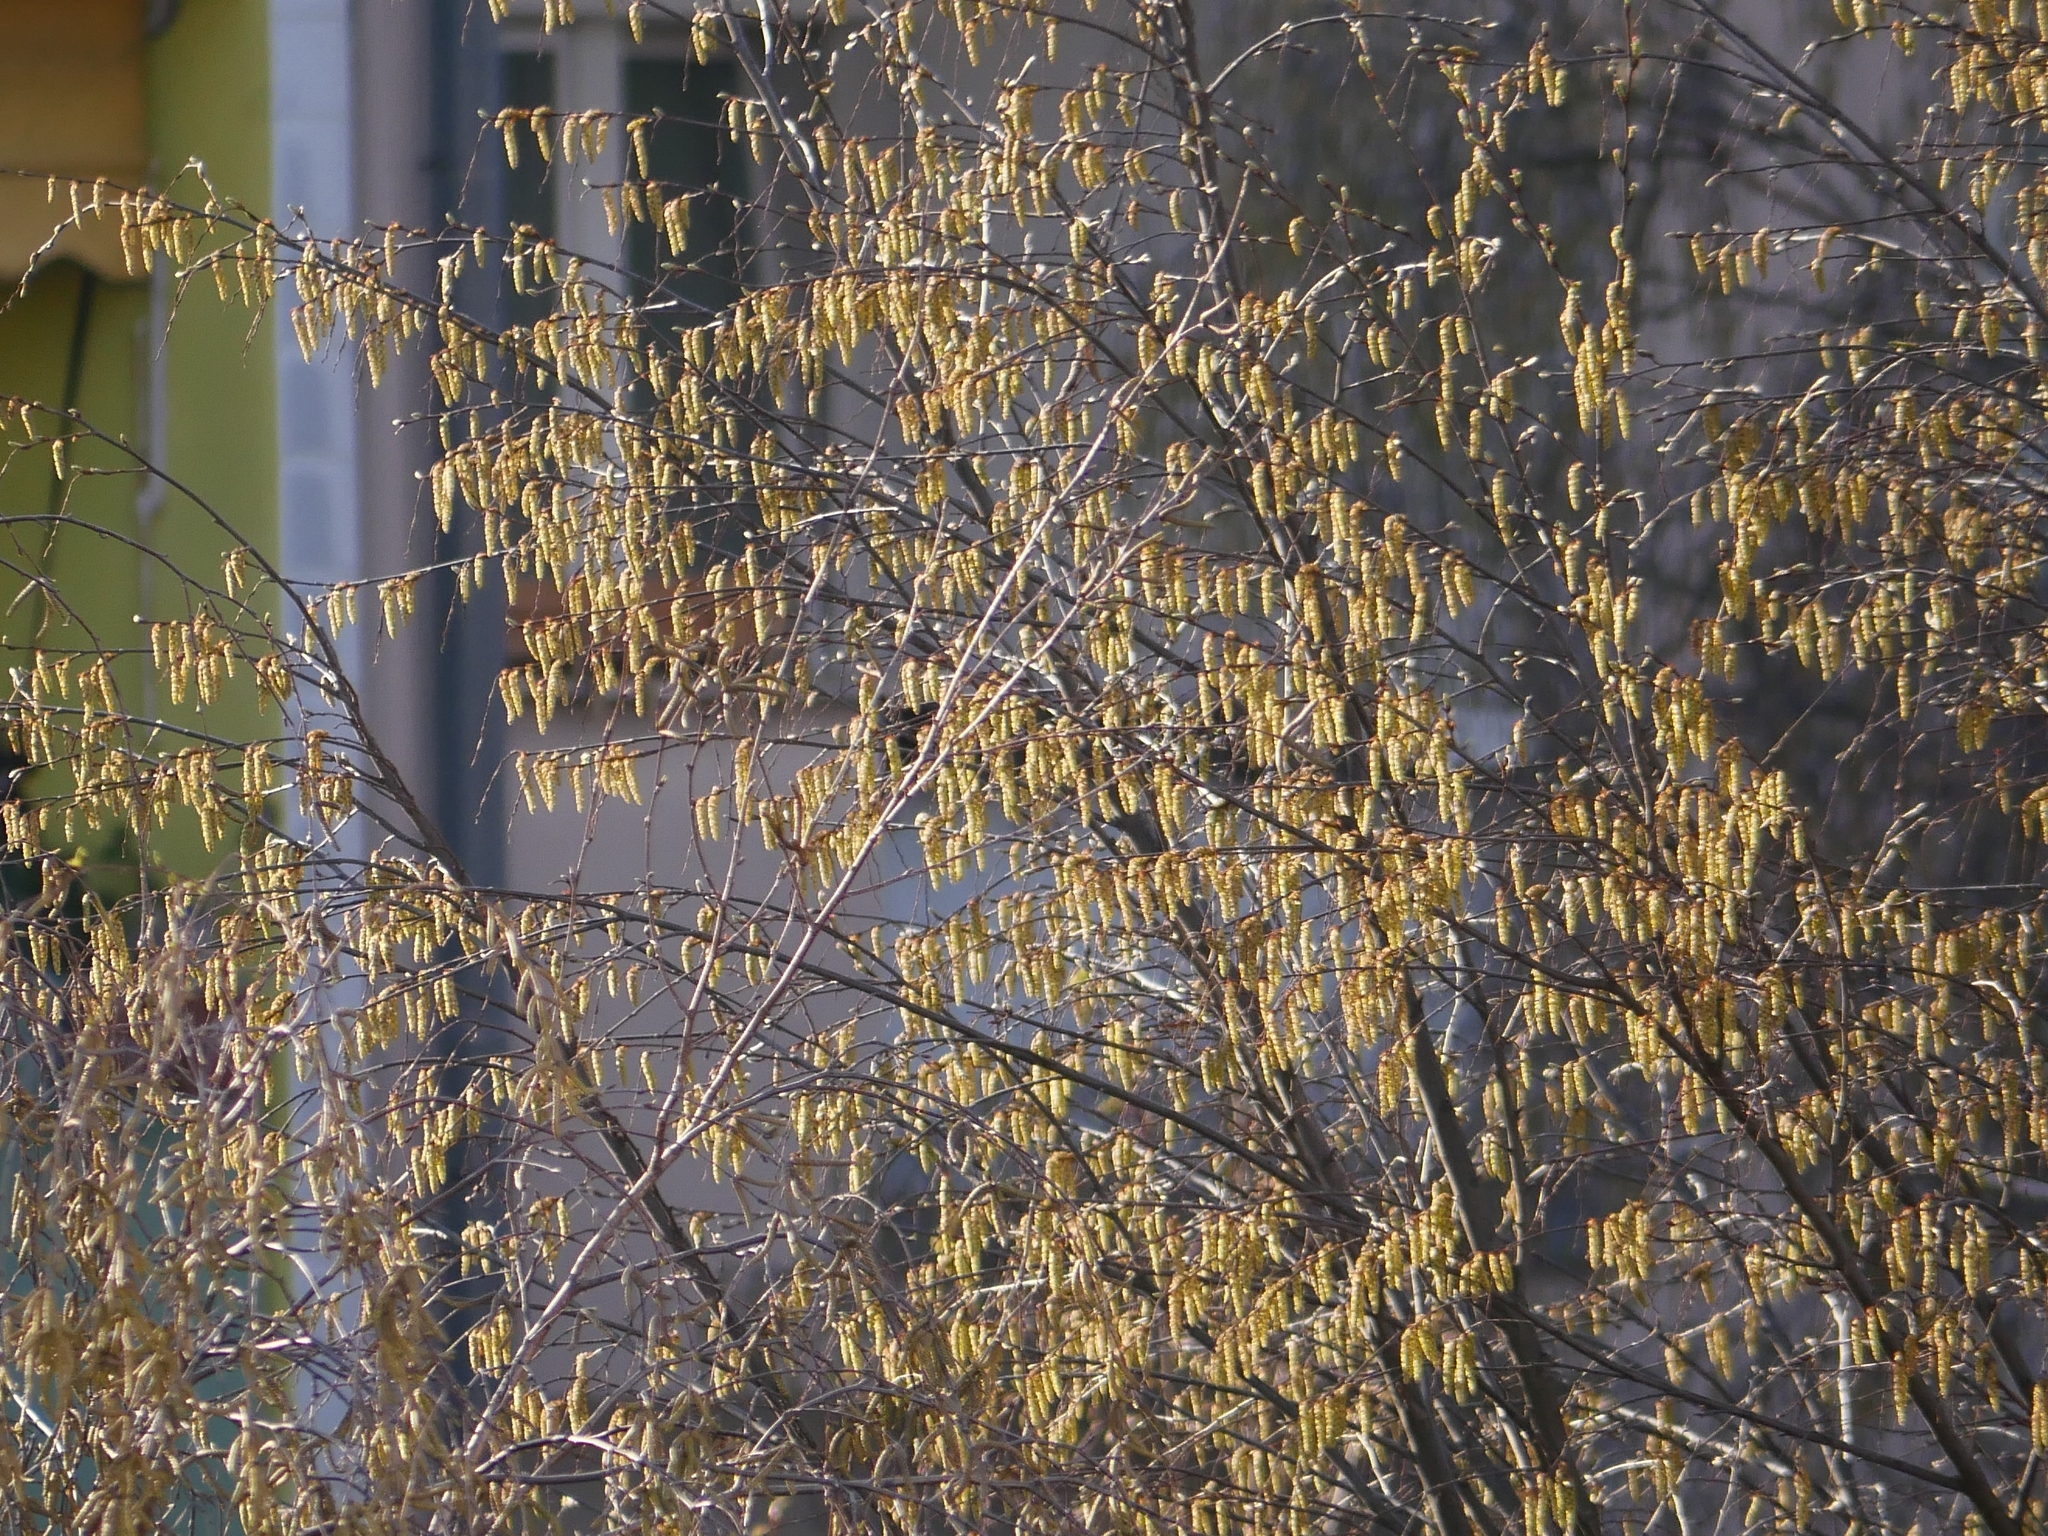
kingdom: Plantae
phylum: Tracheophyta
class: Magnoliopsida
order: Fagales
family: Betulaceae
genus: Carpinus
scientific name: Carpinus betulus
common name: Hornbeam
